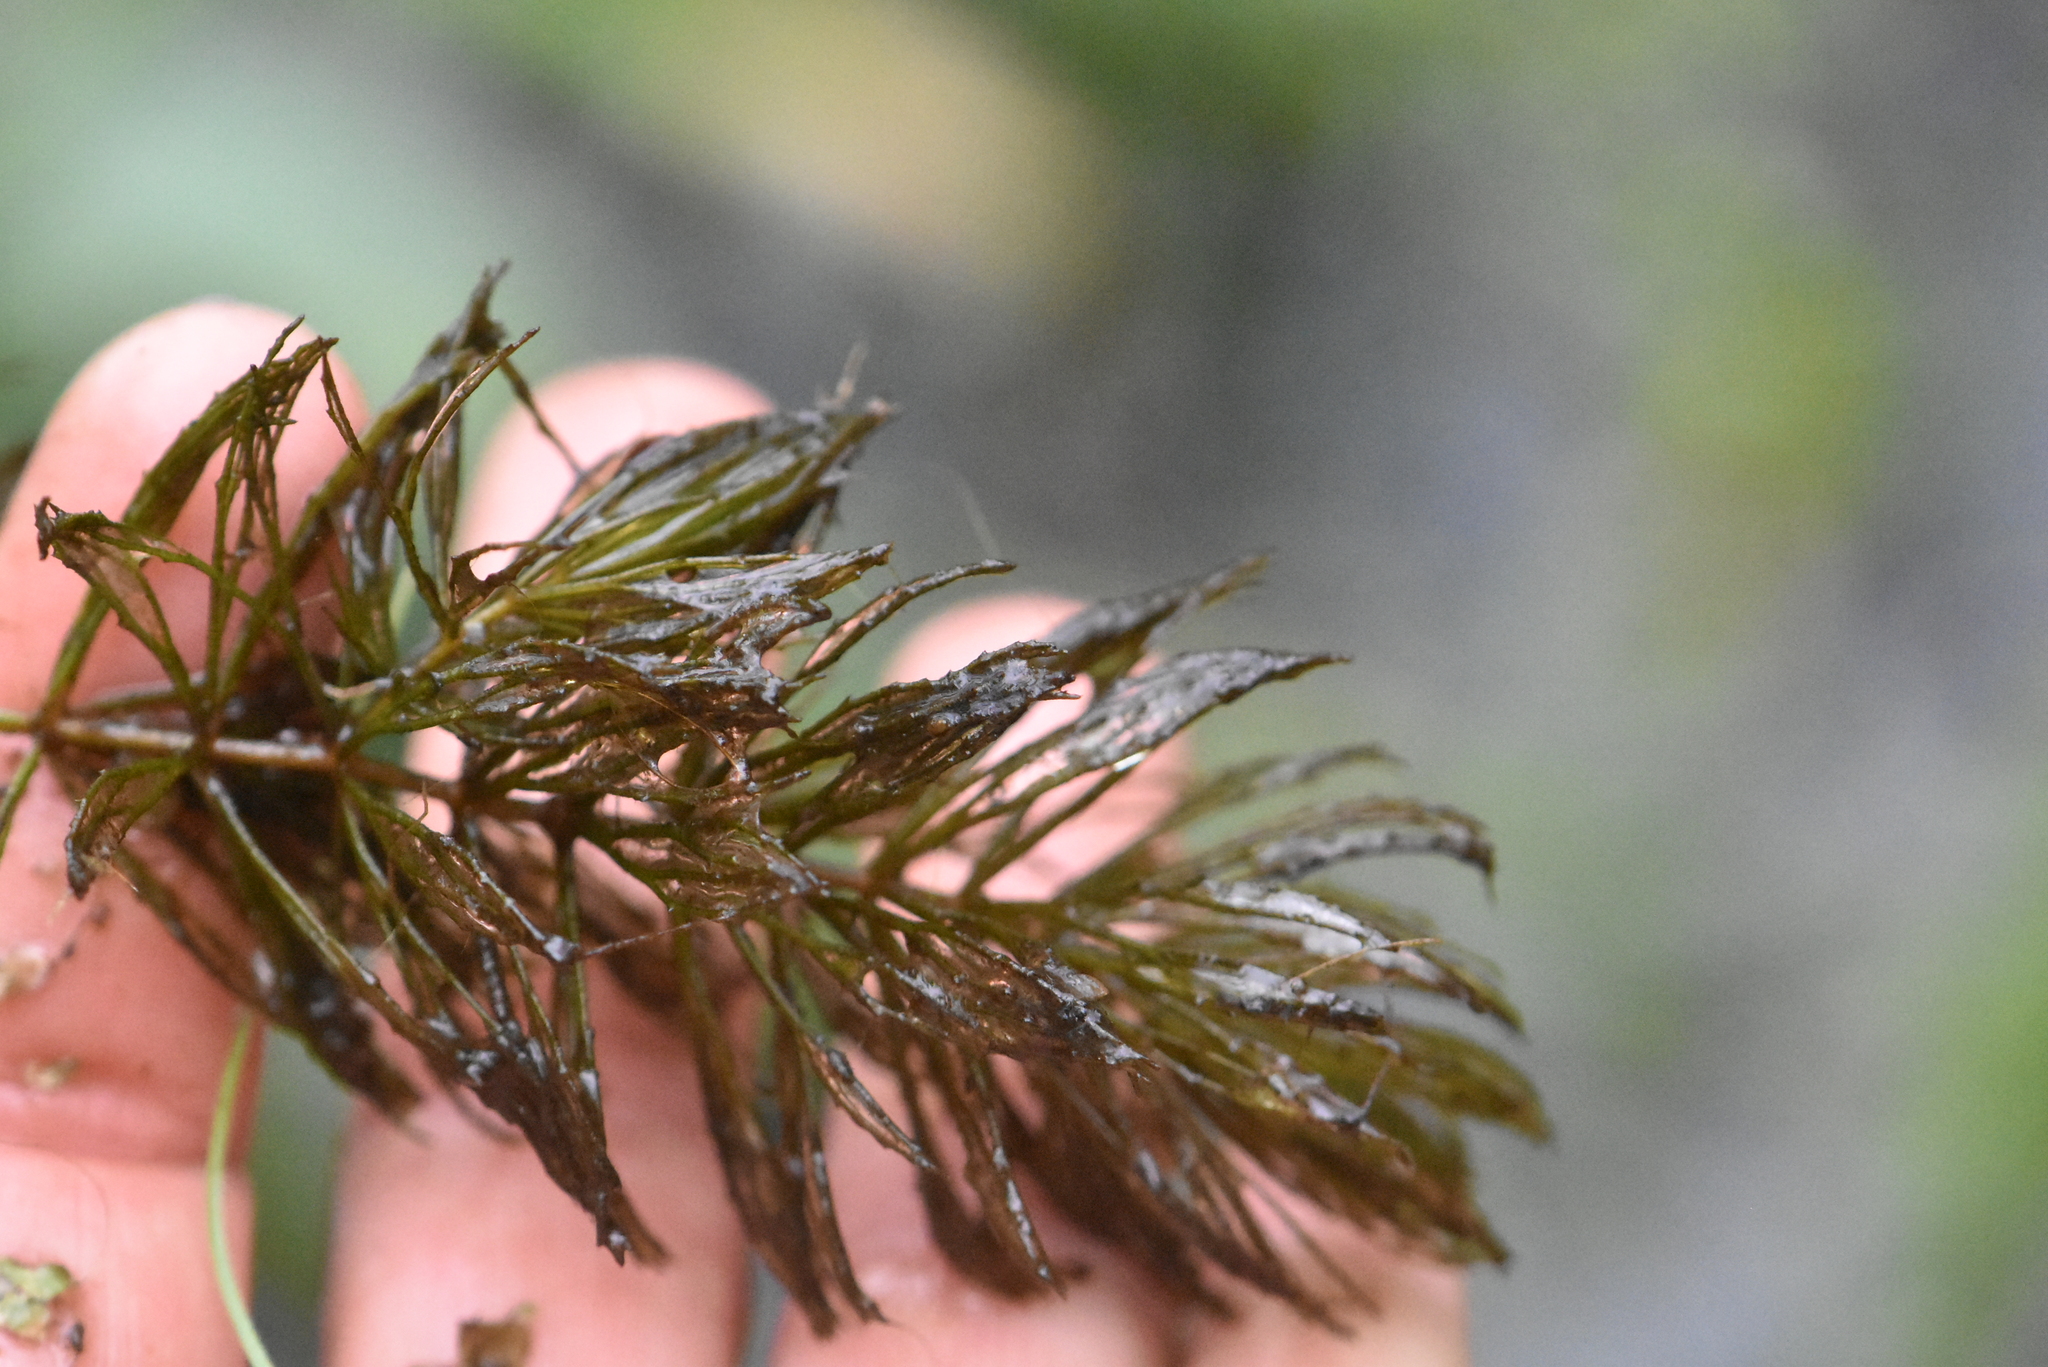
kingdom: Plantae
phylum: Tracheophyta
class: Magnoliopsida
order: Ceratophyllales
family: Ceratophyllaceae
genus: Ceratophyllum
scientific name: Ceratophyllum demersum
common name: Rigid hornwort
